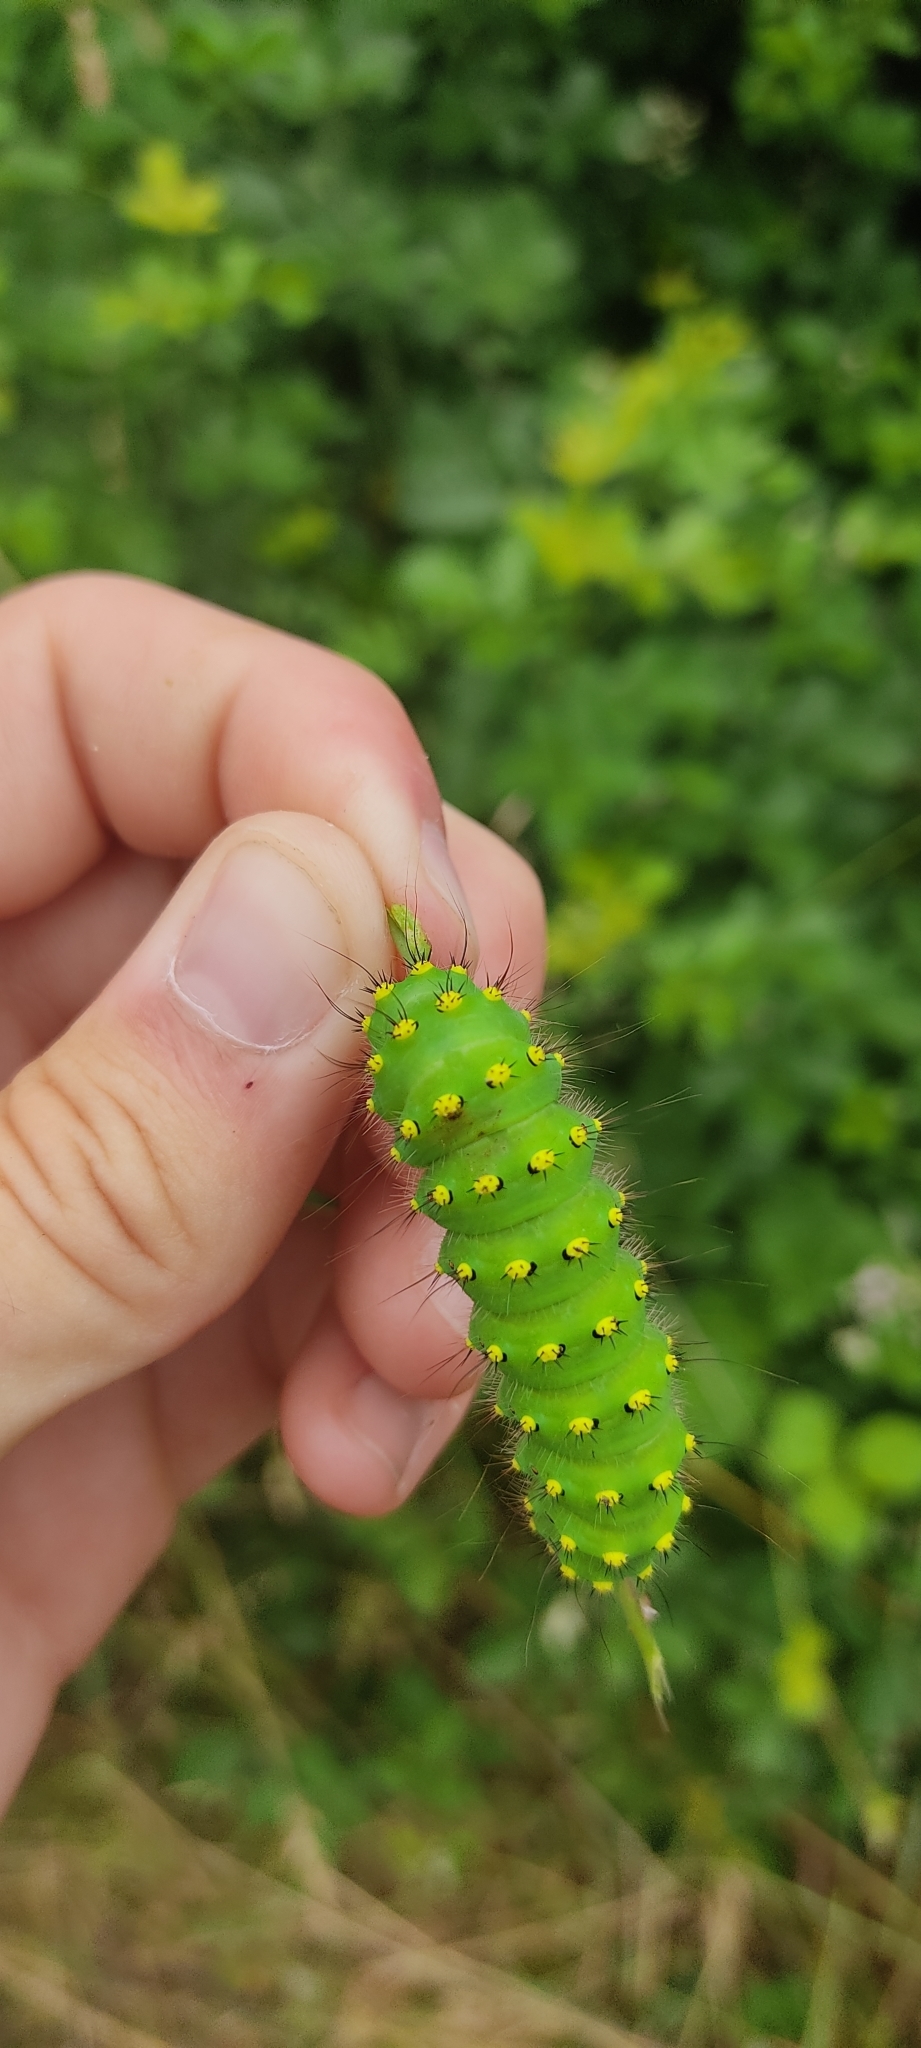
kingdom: Animalia
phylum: Arthropoda
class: Insecta
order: Lepidoptera
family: Saturniidae
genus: Saturnia
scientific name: Saturnia pavonia
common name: Emperor moth
